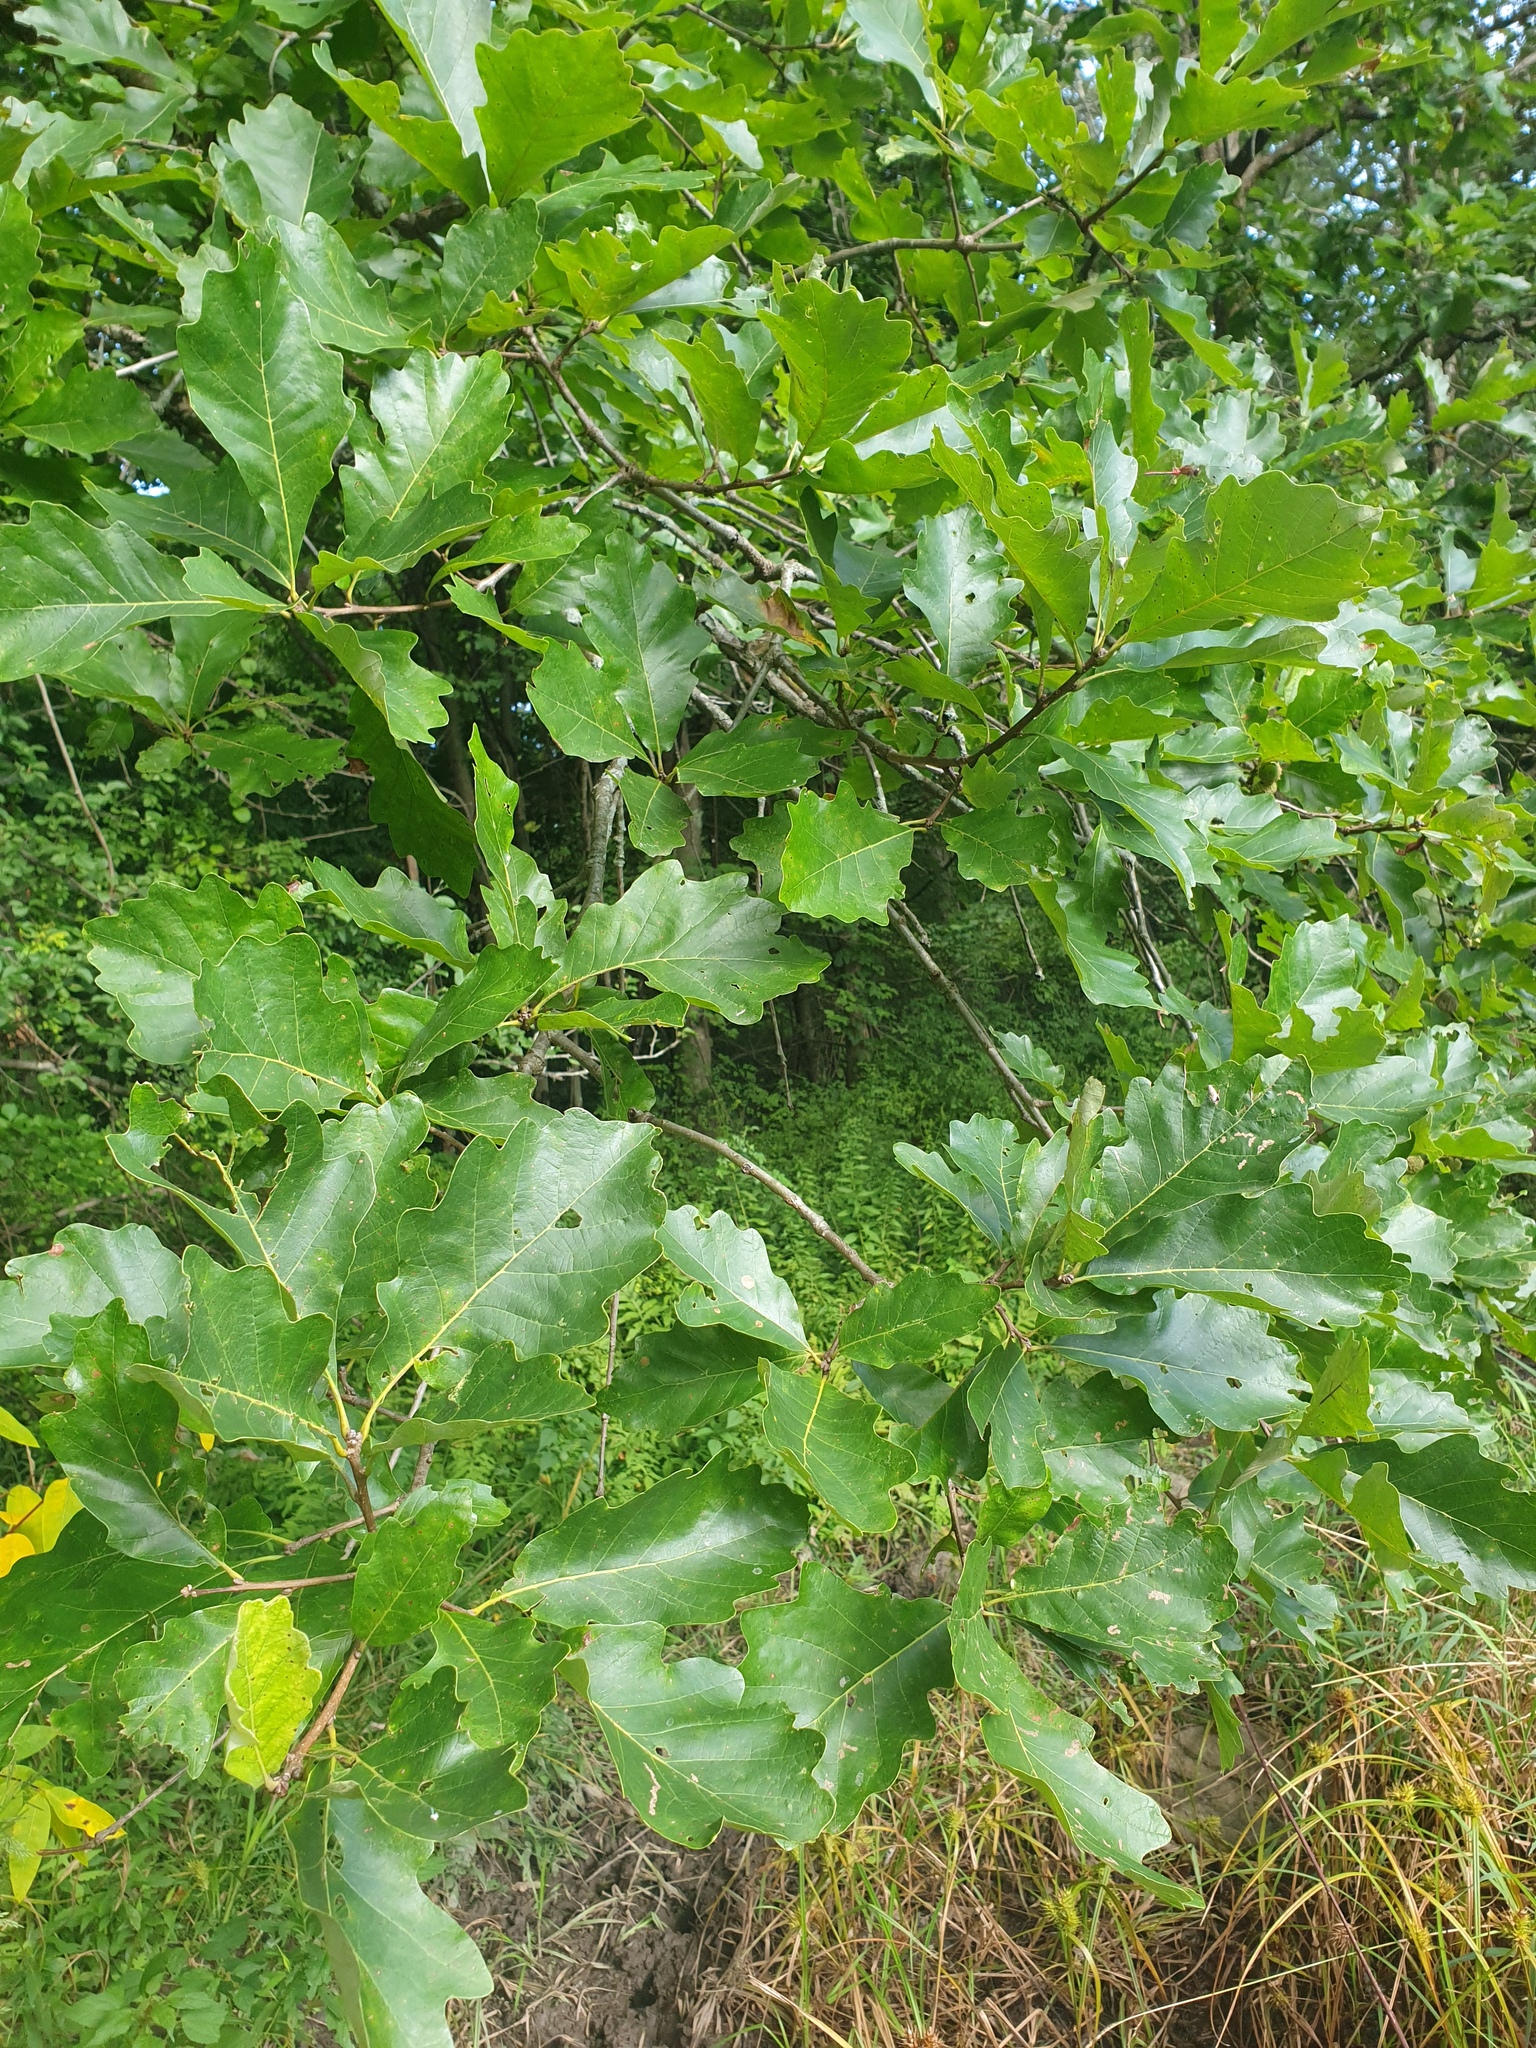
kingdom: Plantae
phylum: Tracheophyta
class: Magnoliopsida
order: Fagales
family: Fagaceae
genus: Quercus
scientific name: Quercus bicolor
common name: Swamp white oak
